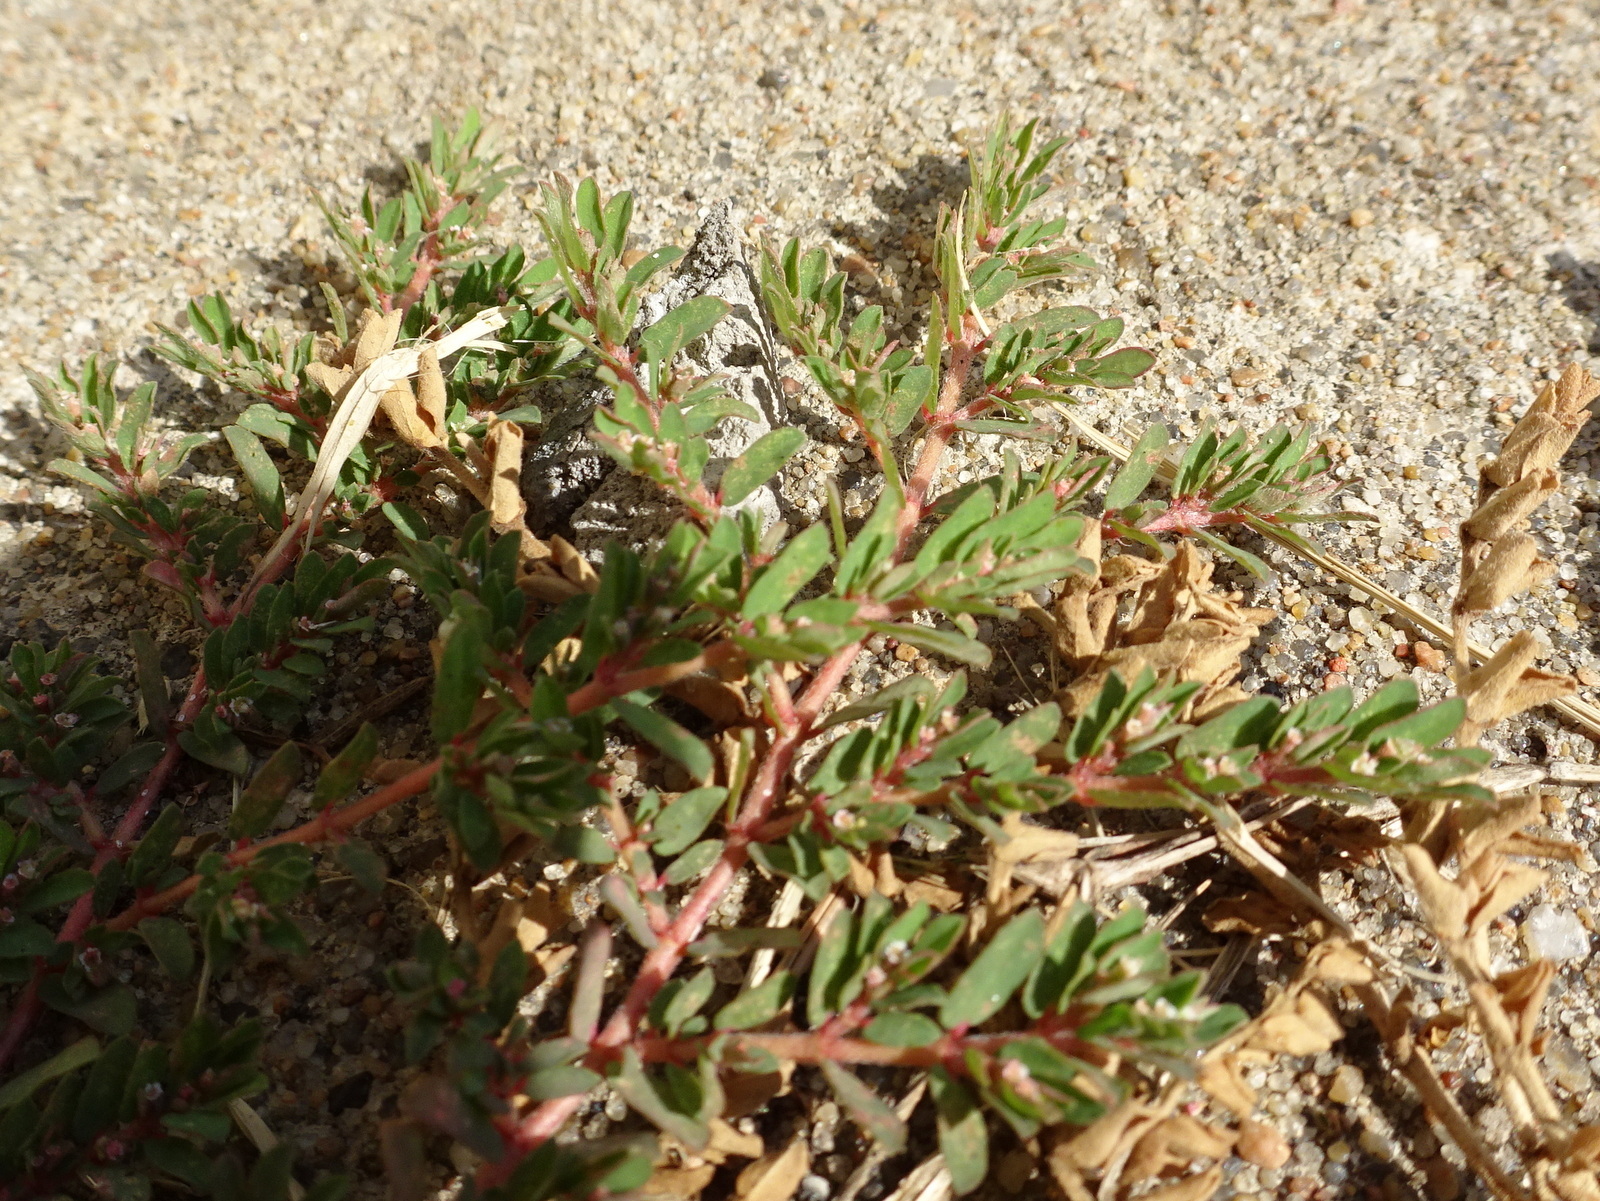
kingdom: Plantae
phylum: Tracheophyta
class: Magnoliopsida
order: Malpighiales
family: Euphorbiaceae
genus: Euphorbia
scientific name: Euphorbia maculata
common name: Spotted spurge
